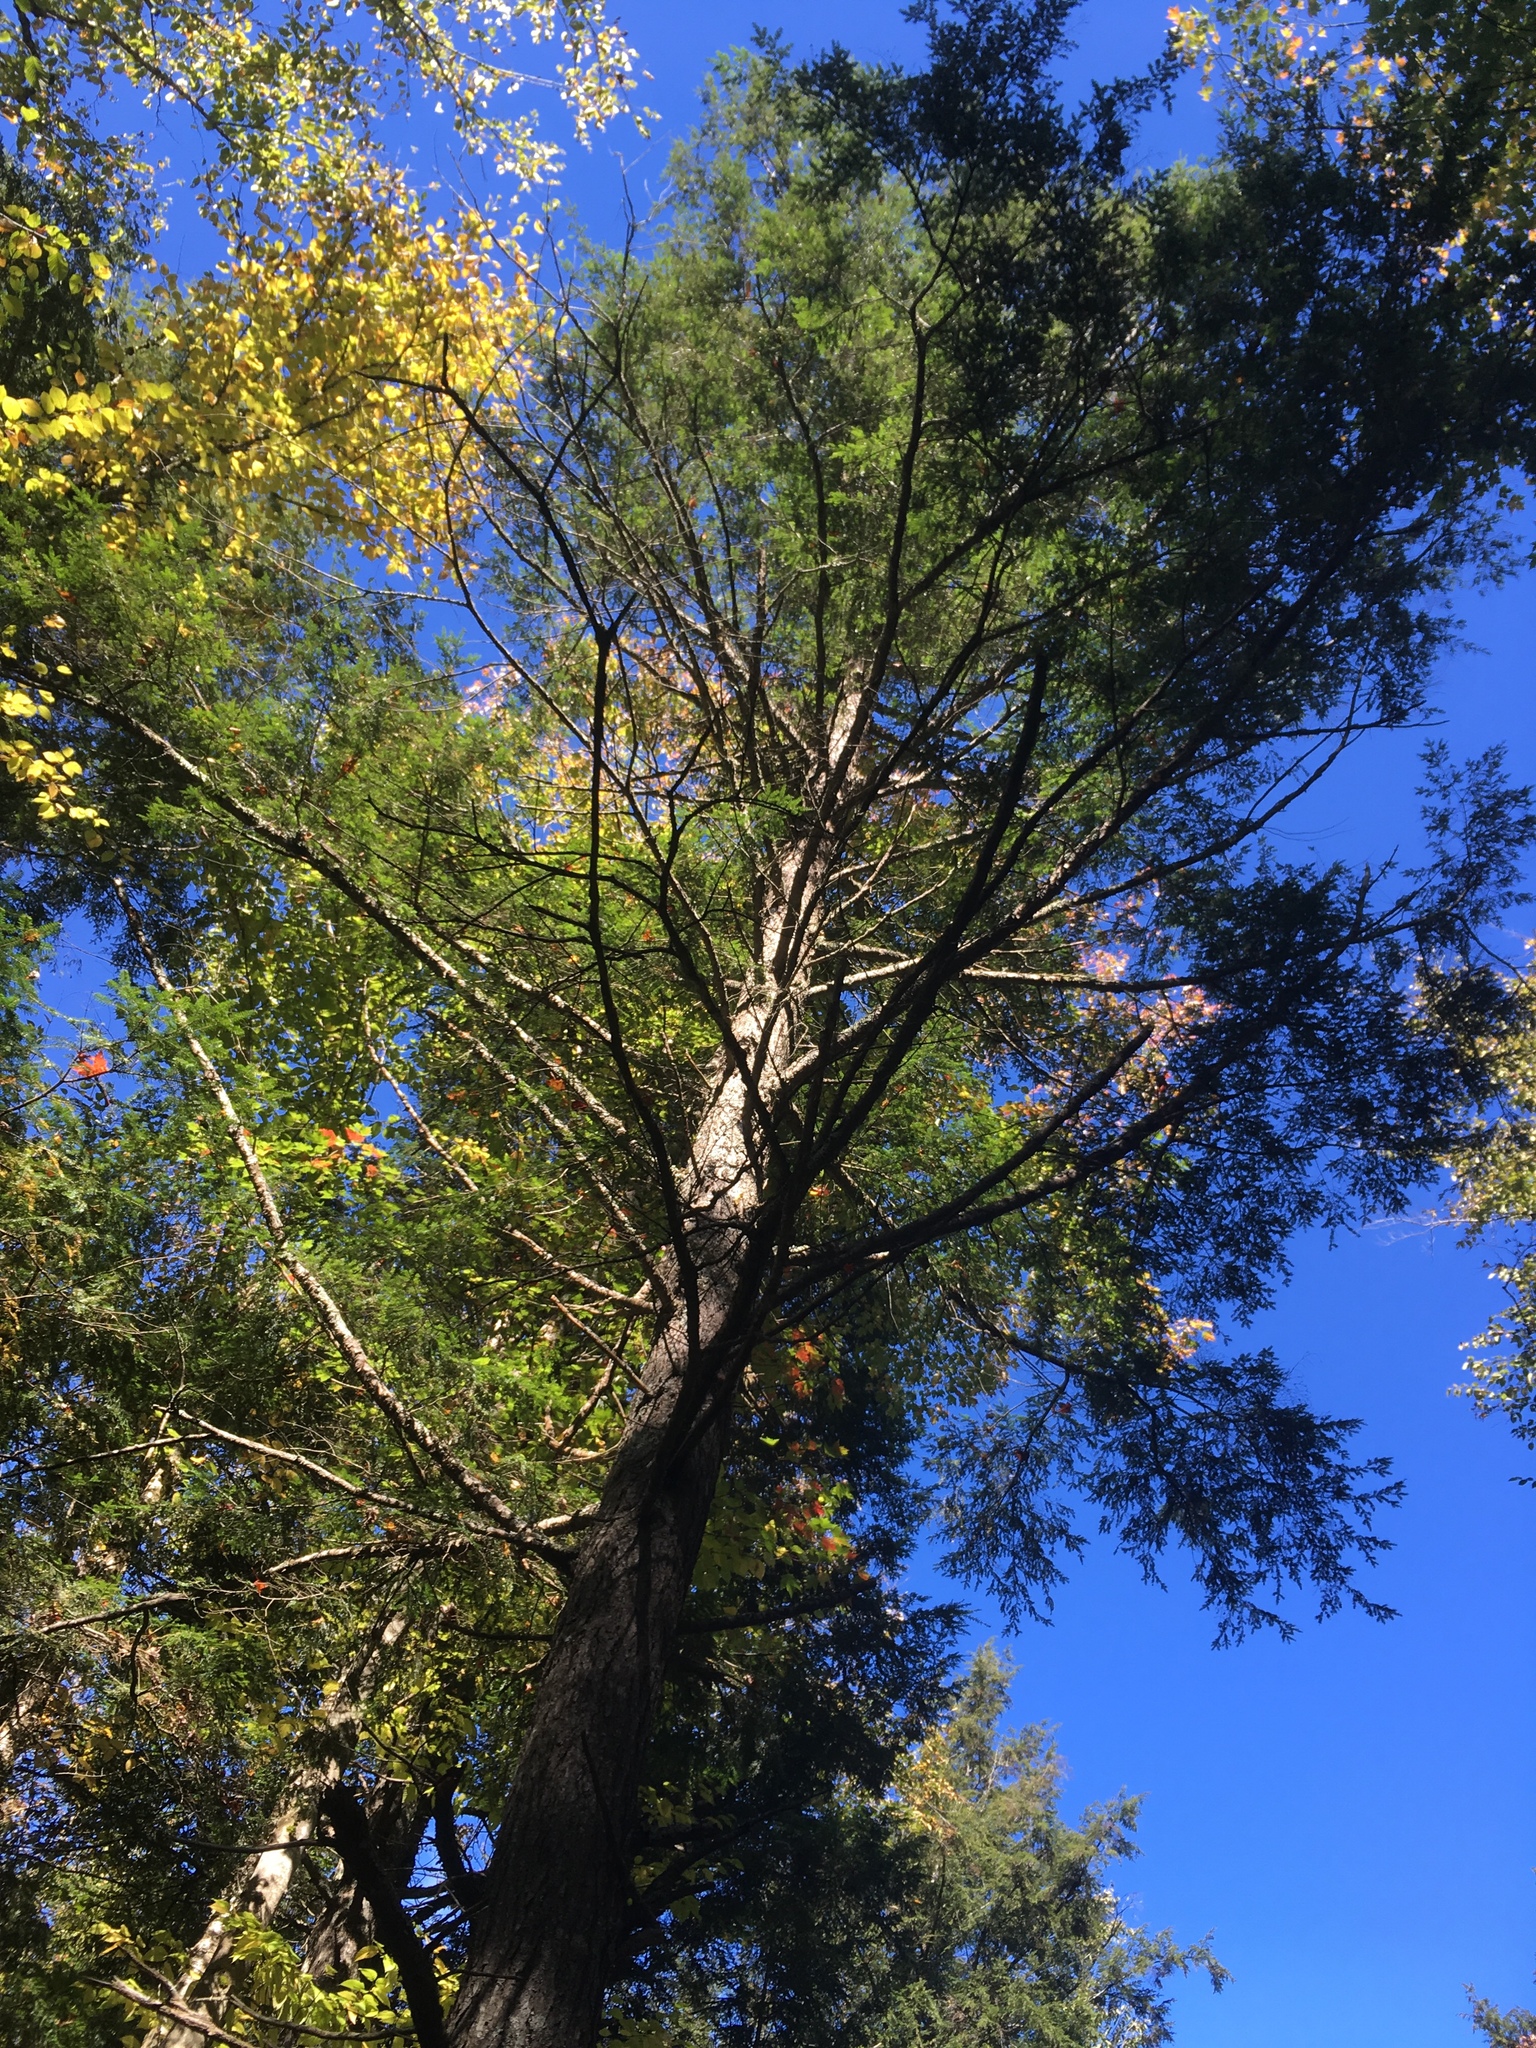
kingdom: Plantae
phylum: Tracheophyta
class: Pinopsida
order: Pinales
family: Pinaceae
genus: Tsuga
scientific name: Tsuga canadensis
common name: Eastern hemlock
